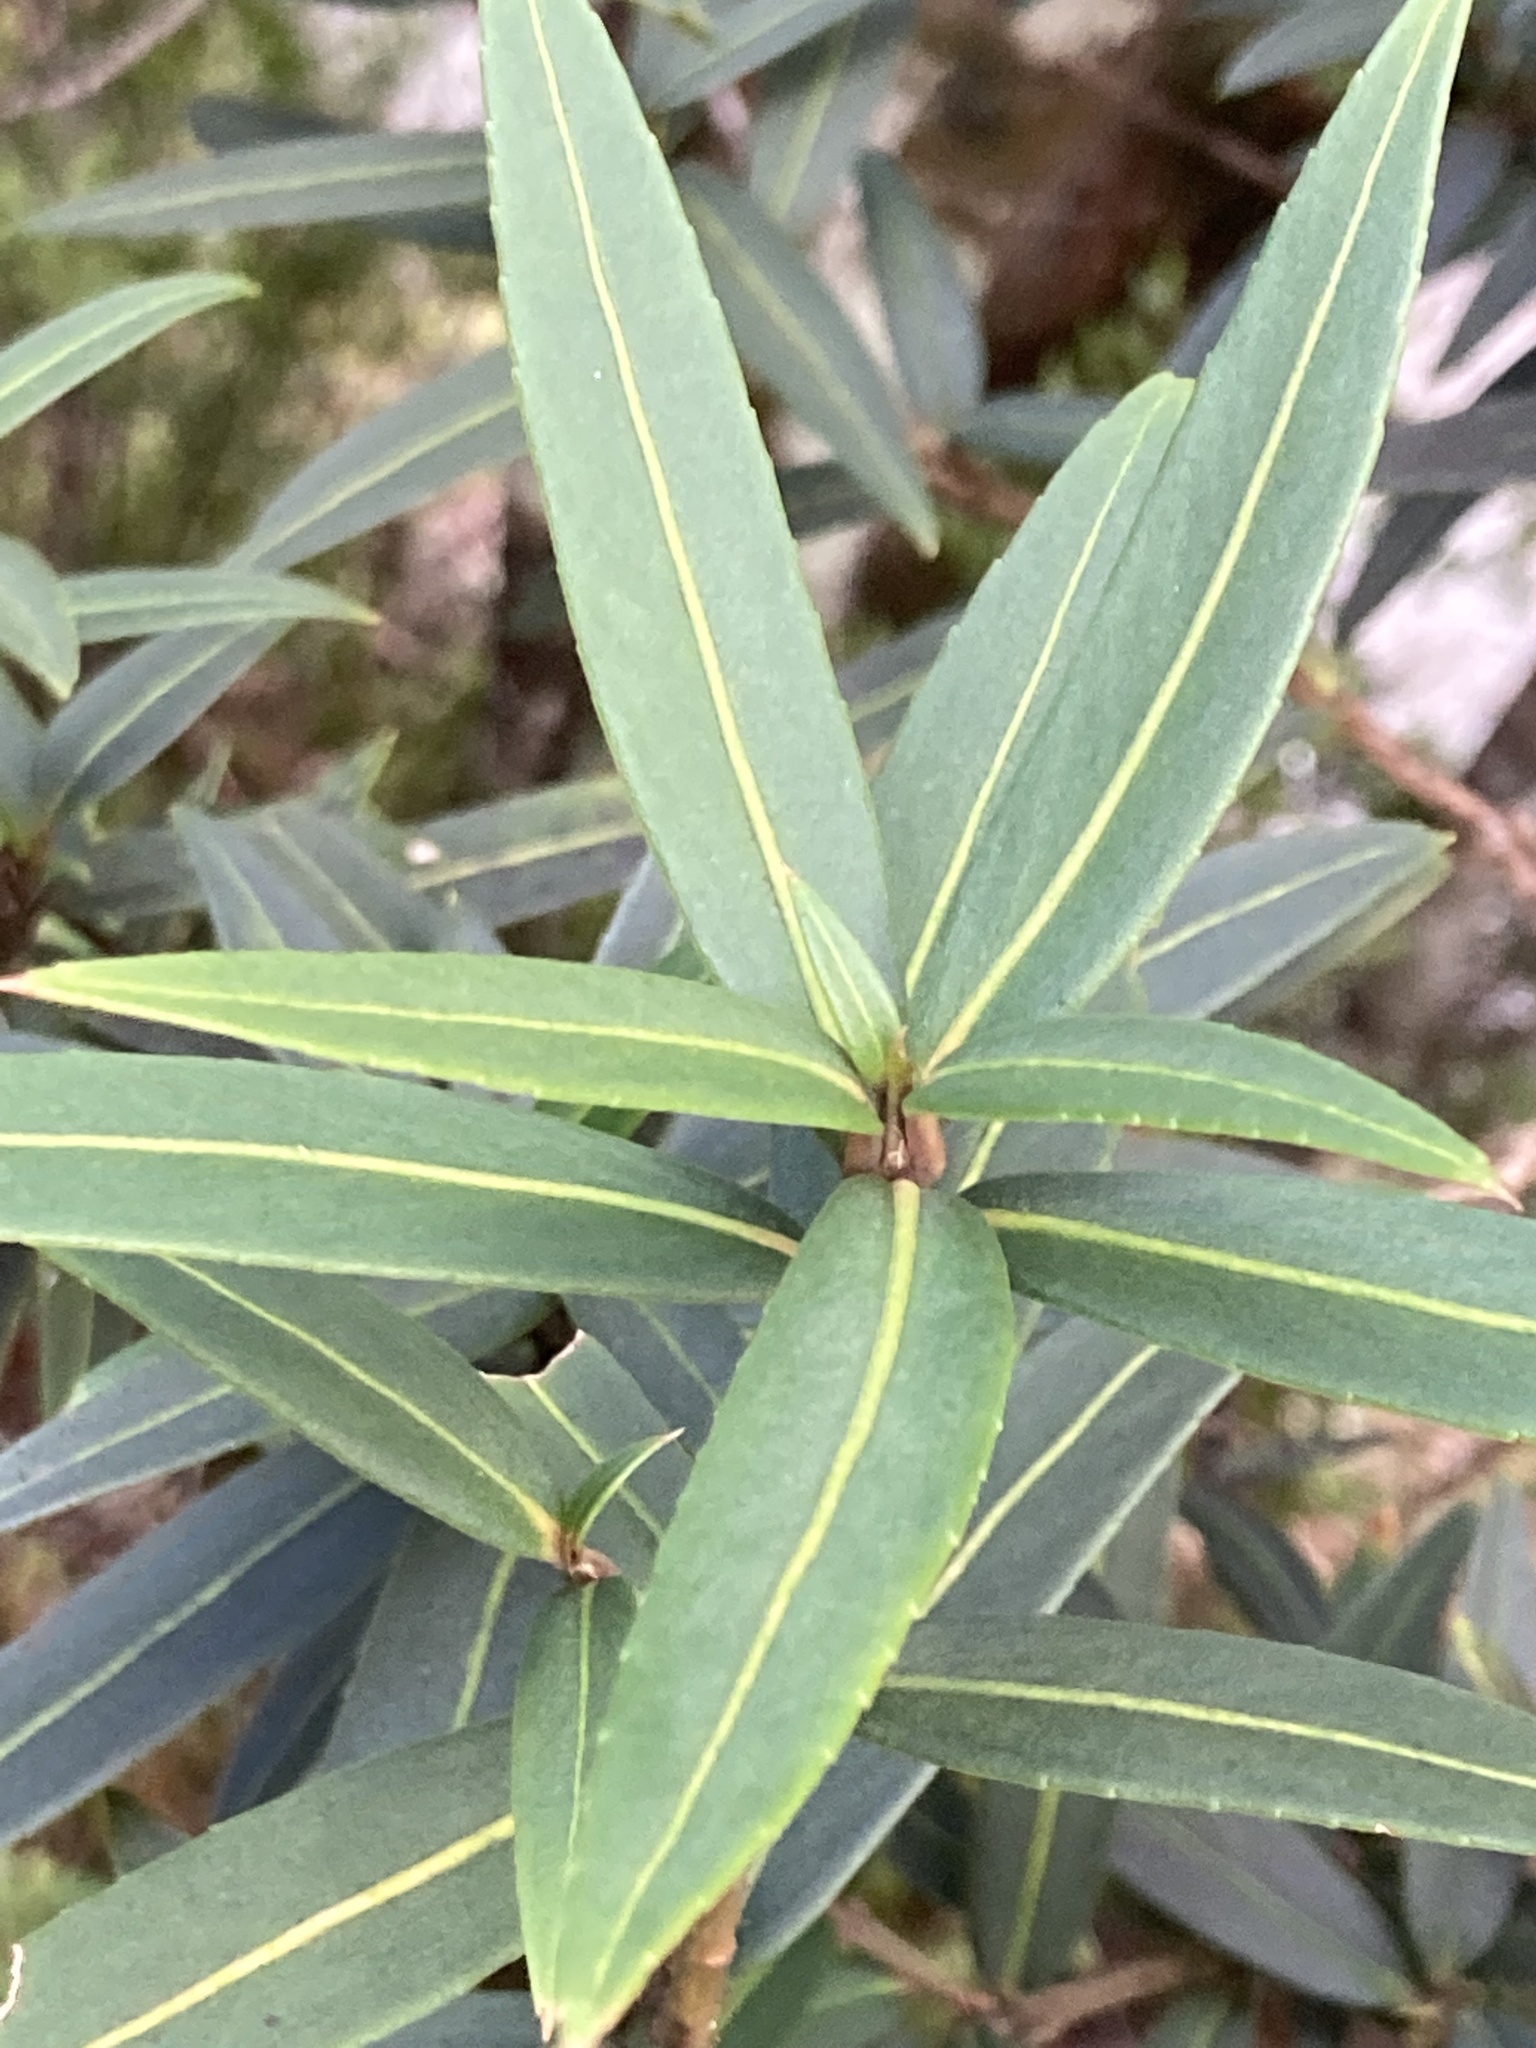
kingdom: Plantae
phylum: Tracheophyta
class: Magnoliopsida
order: Apiales
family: Araliaceae
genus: Pseudopanax
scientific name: Pseudopanax linearis
